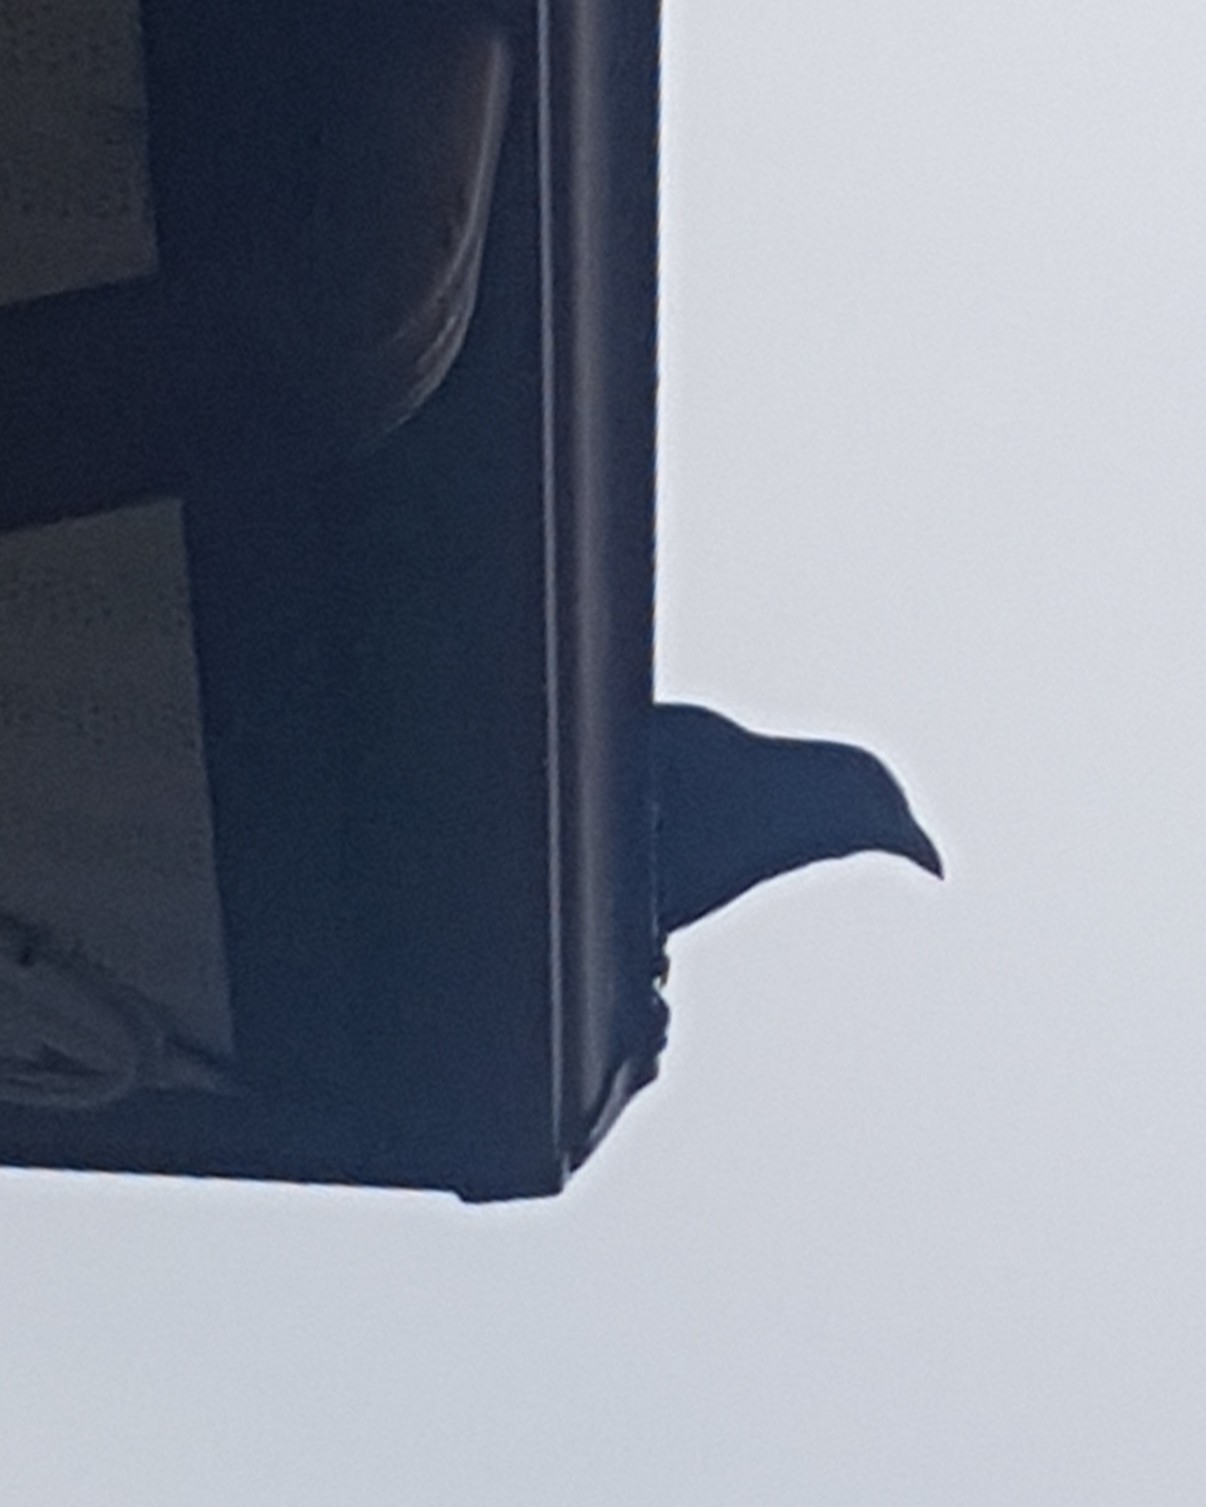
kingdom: Animalia
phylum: Chordata
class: Aves
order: Passeriformes
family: Corvidae
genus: Corvus
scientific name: Corvus brachyrhynchos
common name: American crow
